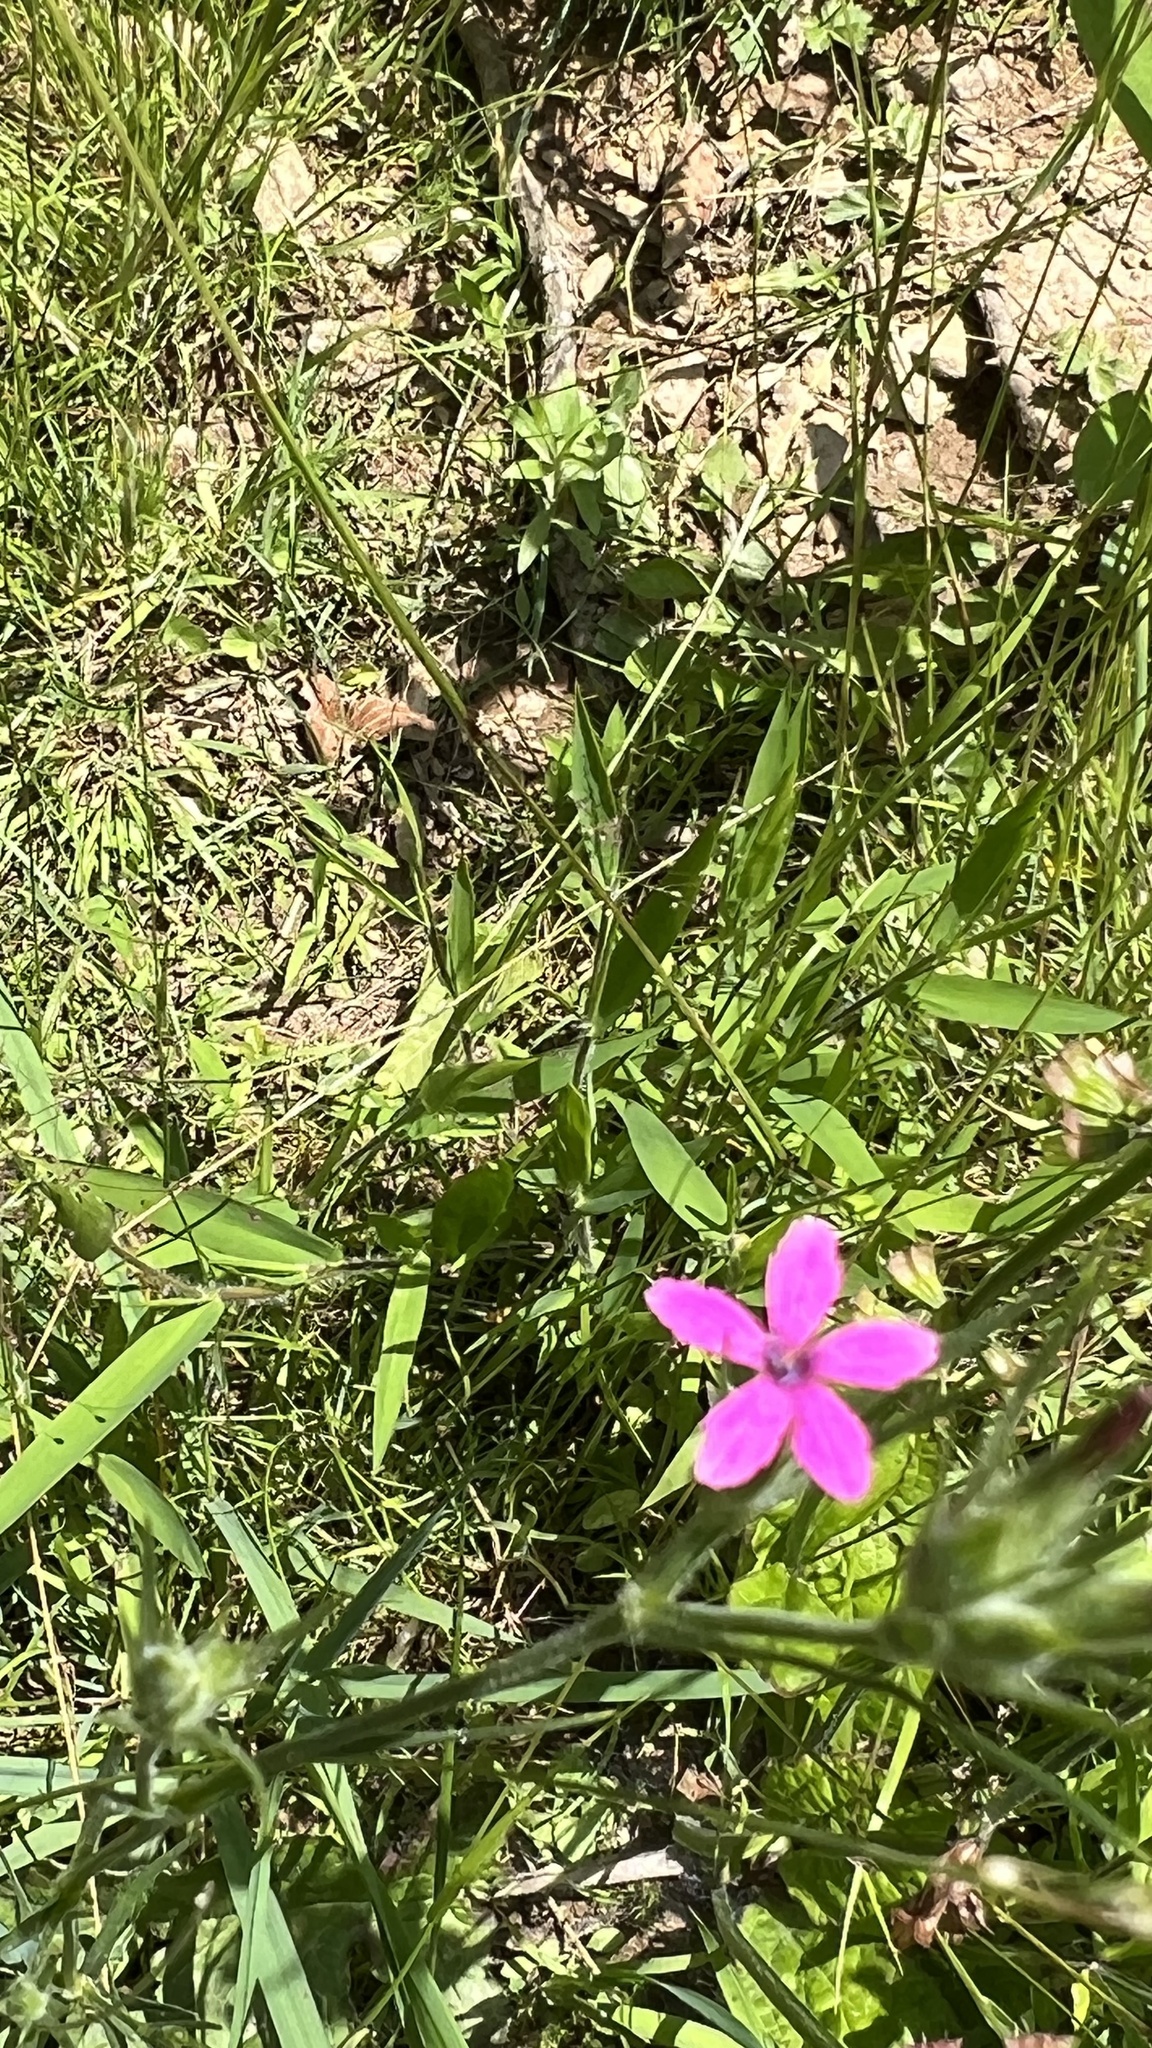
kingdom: Plantae
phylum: Tracheophyta
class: Magnoliopsida
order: Caryophyllales
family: Caryophyllaceae
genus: Dianthus
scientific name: Dianthus armeria
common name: Deptford pink
